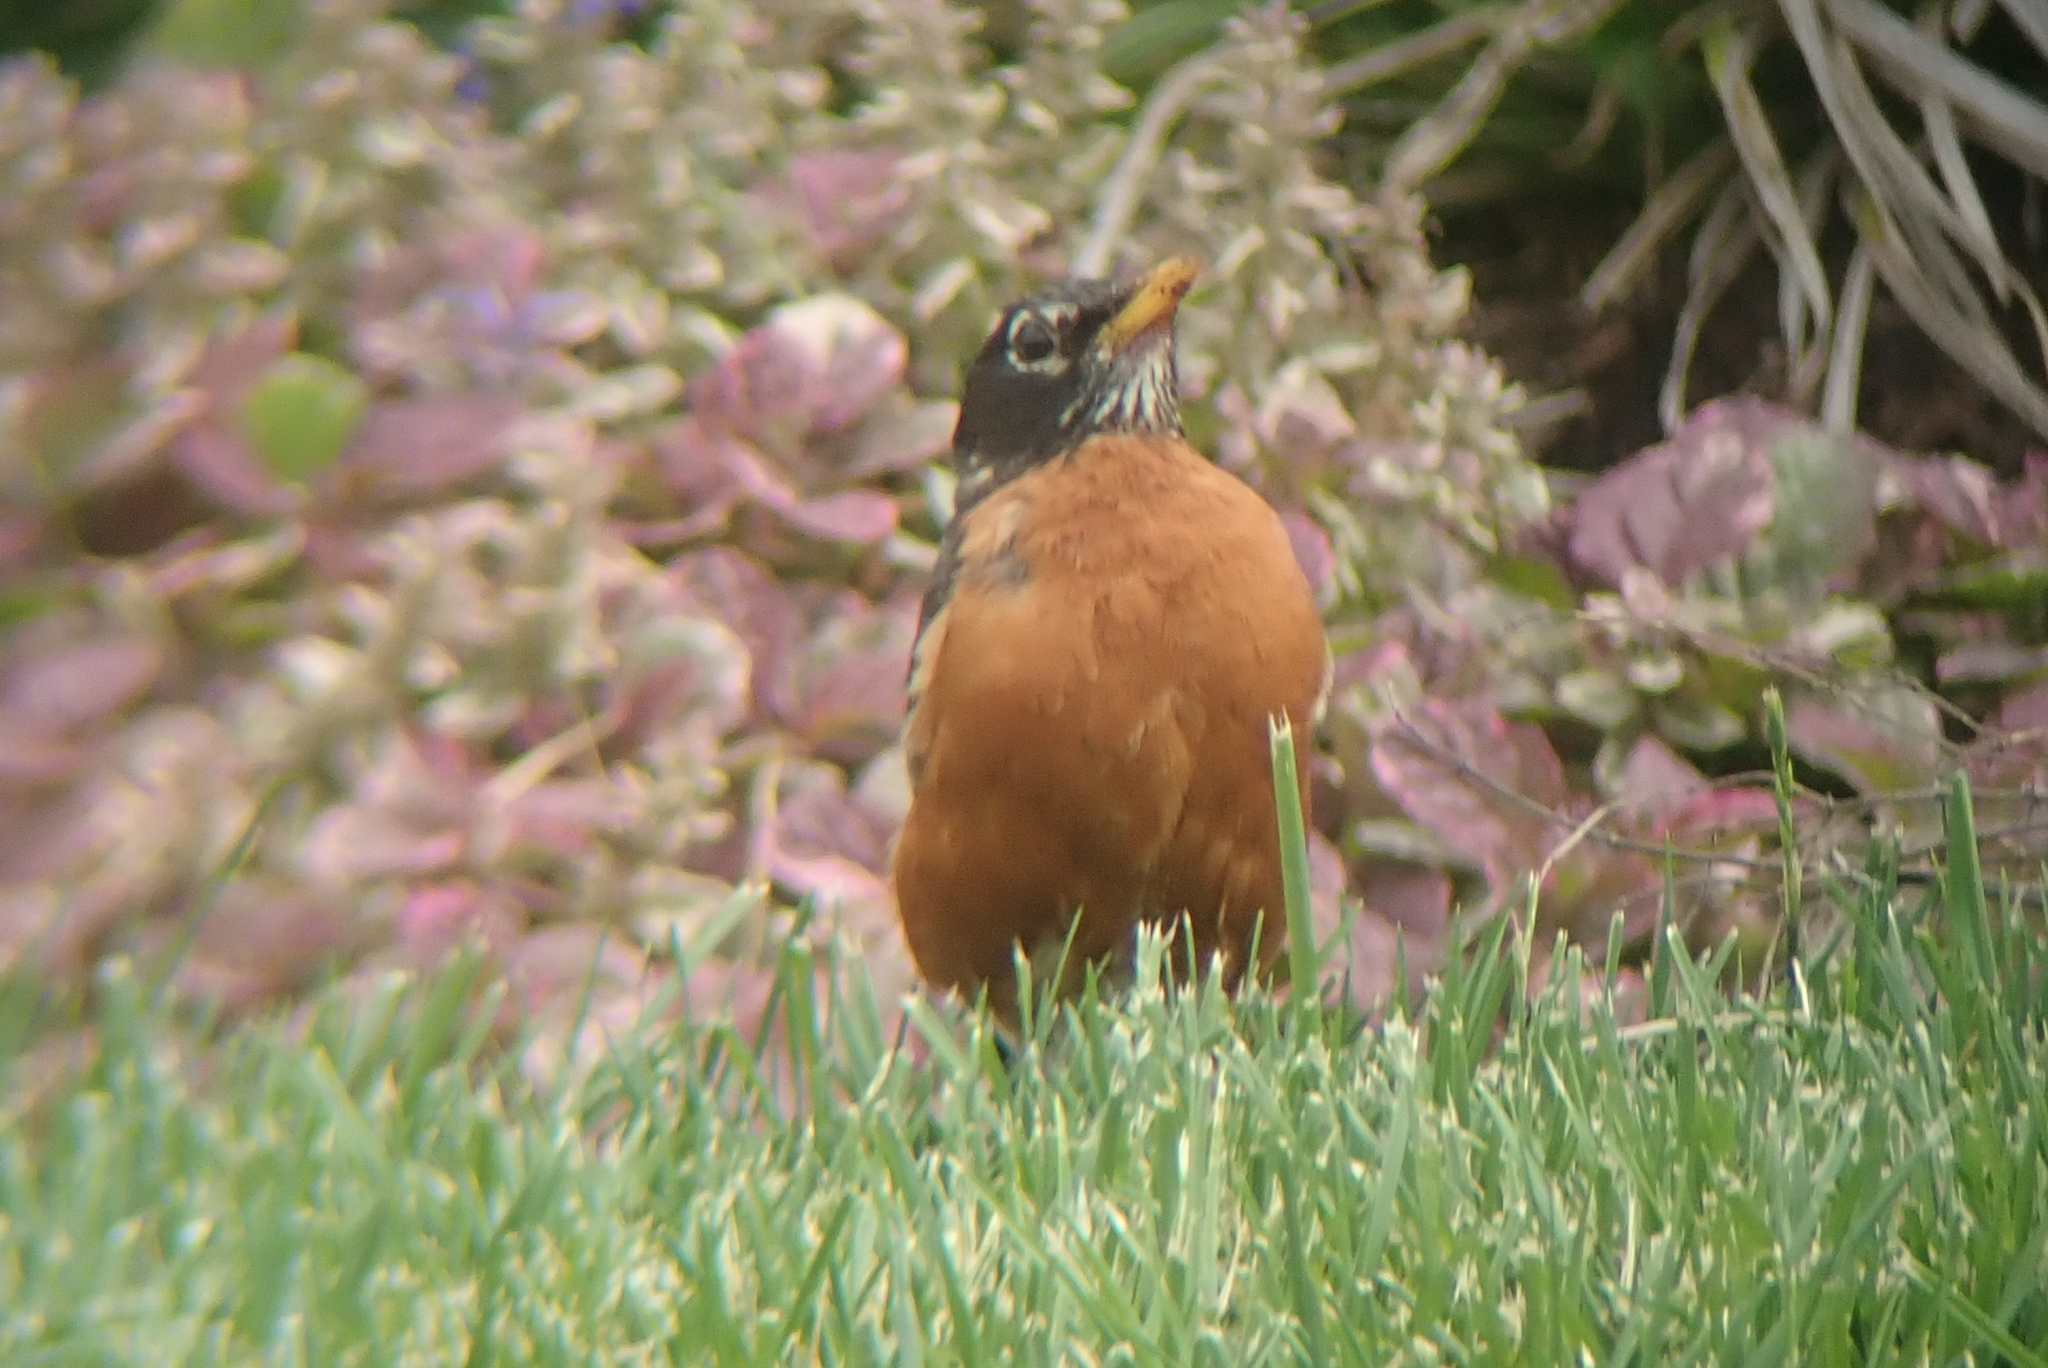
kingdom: Animalia
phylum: Chordata
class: Aves
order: Passeriformes
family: Turdidae
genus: Turdus
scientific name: Turdus migratorius
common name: American robin
